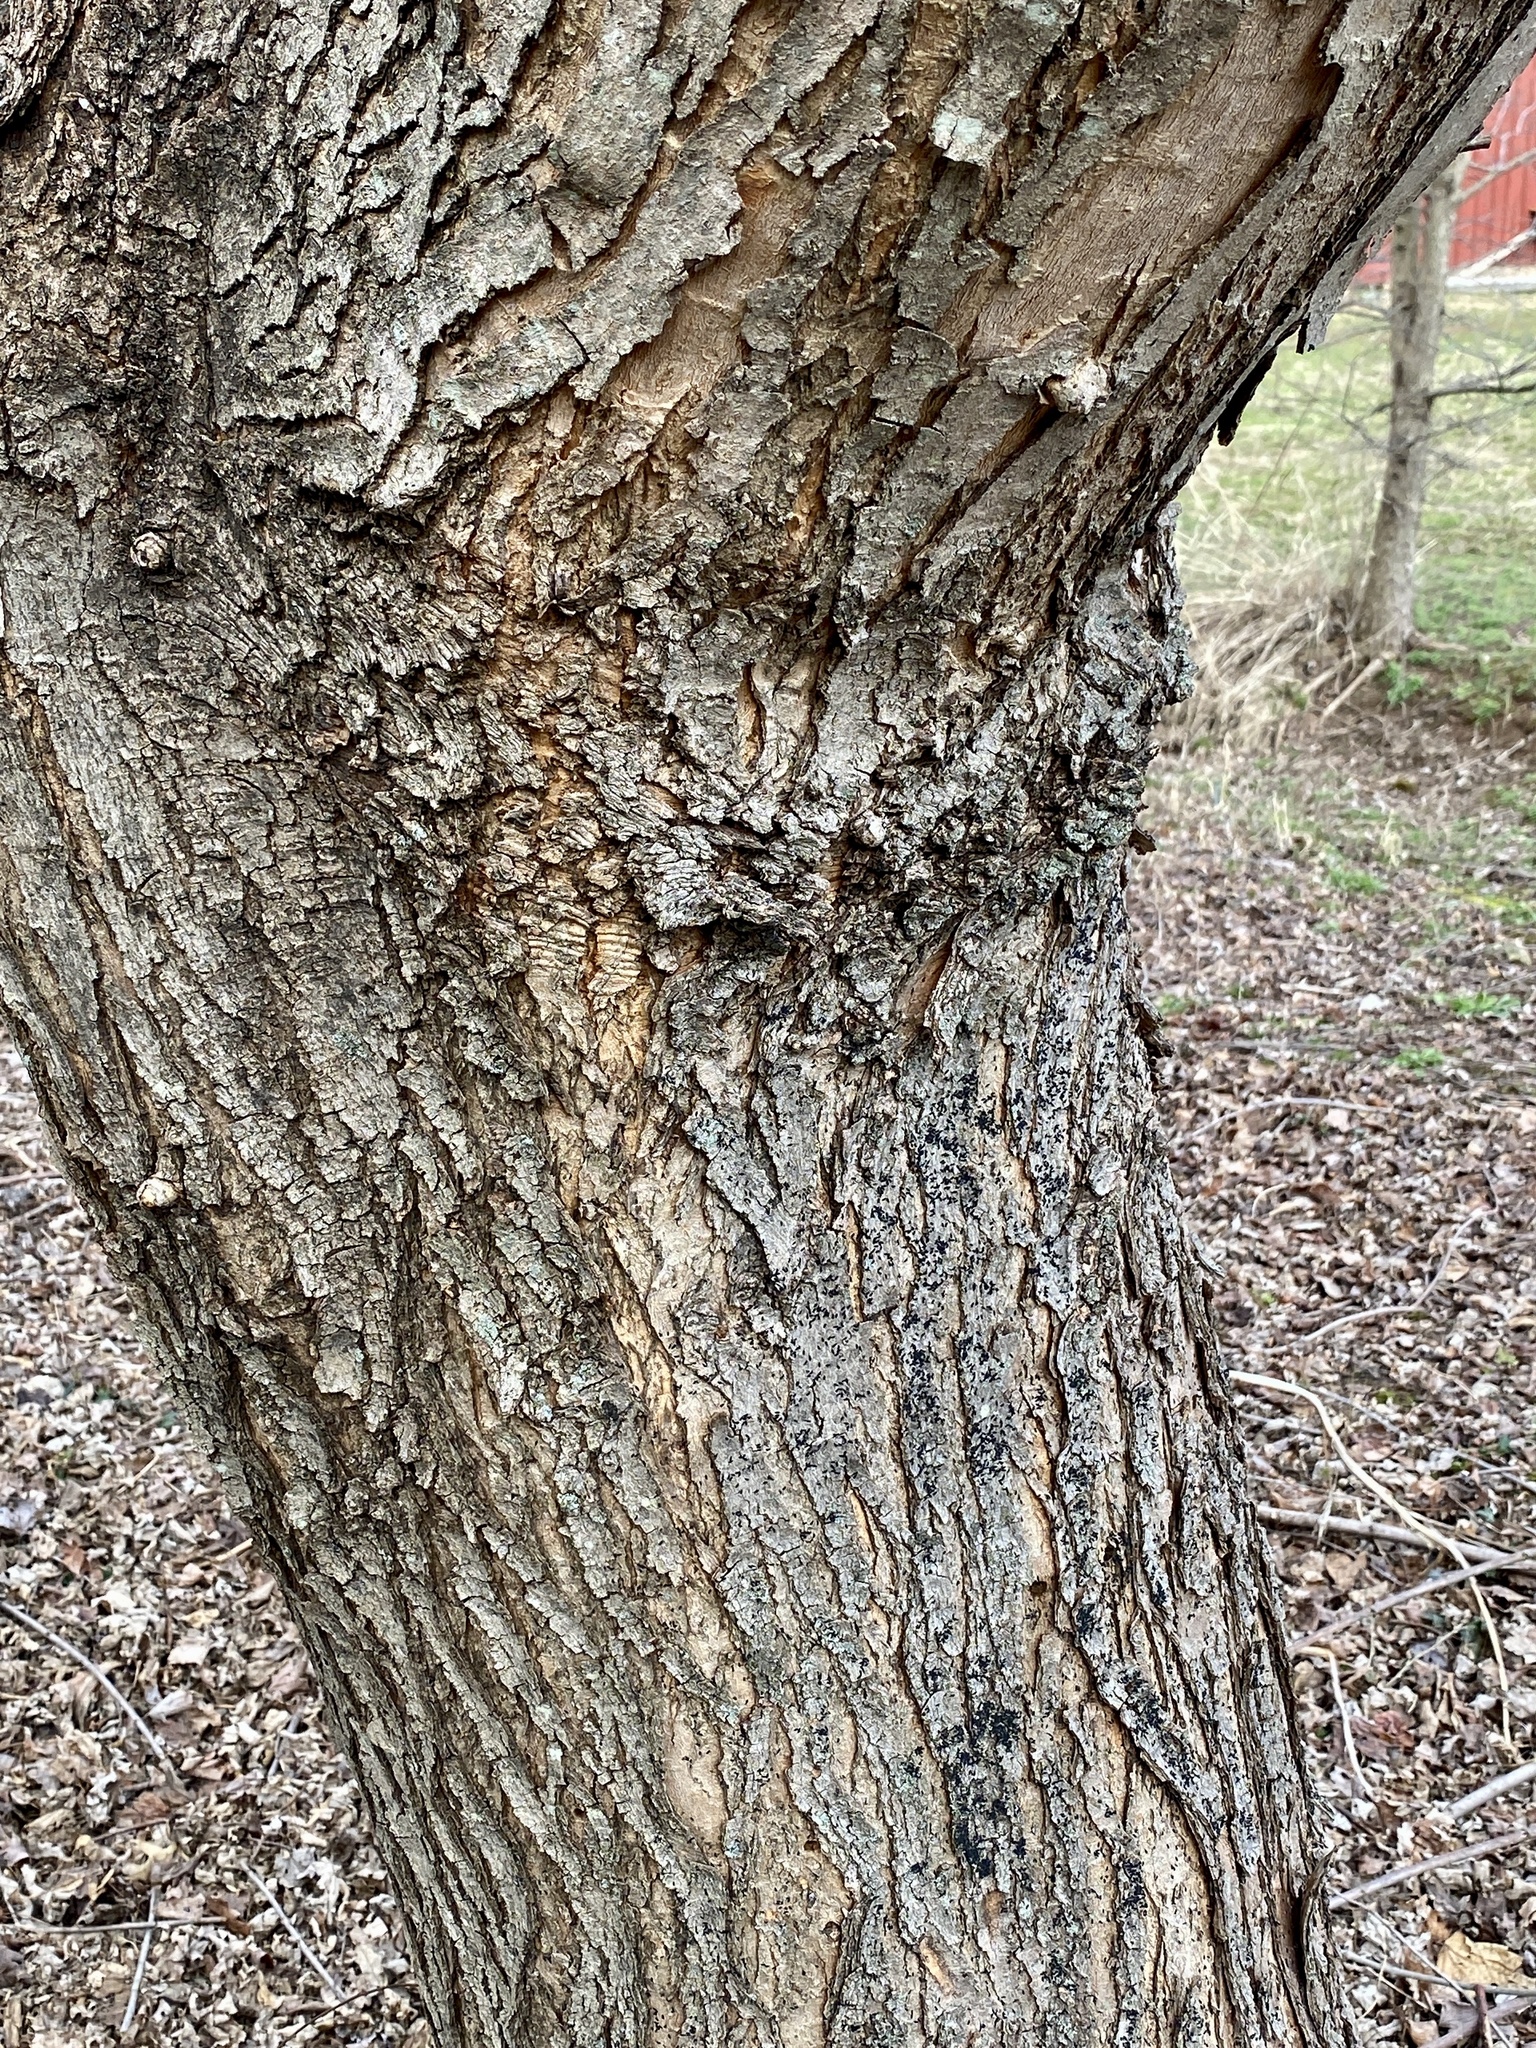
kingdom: Plantae
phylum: Tracheophyta
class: Magnoliopsida
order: Sapindales
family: Sapindaceae
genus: Acer
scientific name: Acer saccharinum
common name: Silver maple
